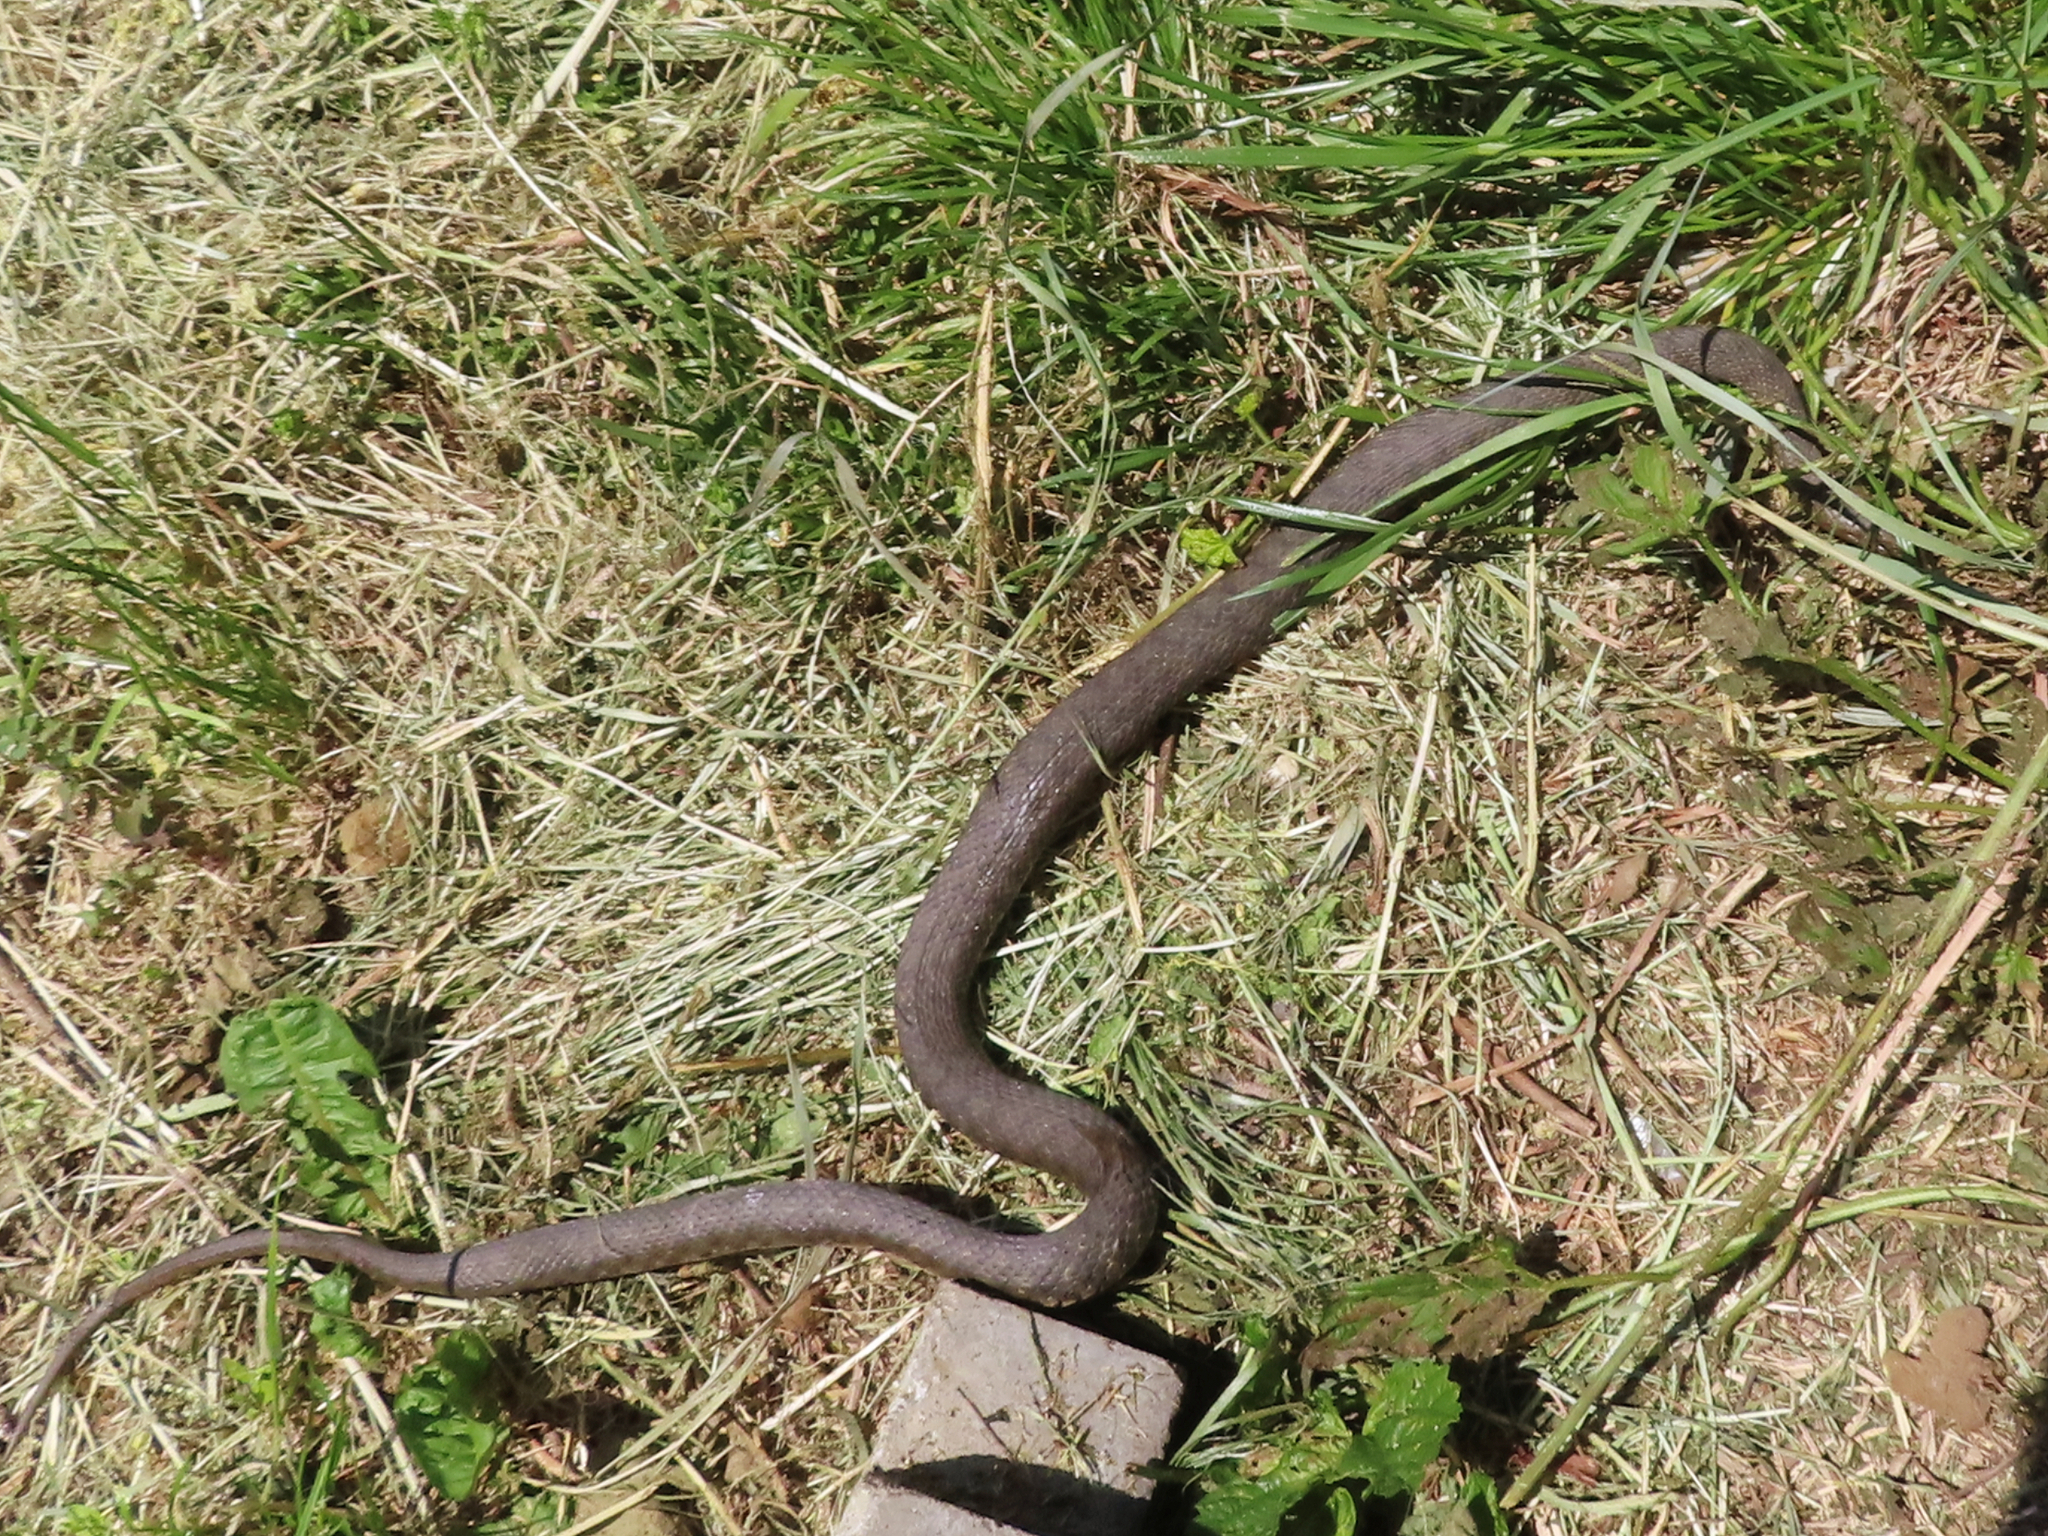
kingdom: Animalia
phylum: Chordata
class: Squamata
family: Colubridae
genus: Natrix
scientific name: Natrix tessellata
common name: Dice snake
